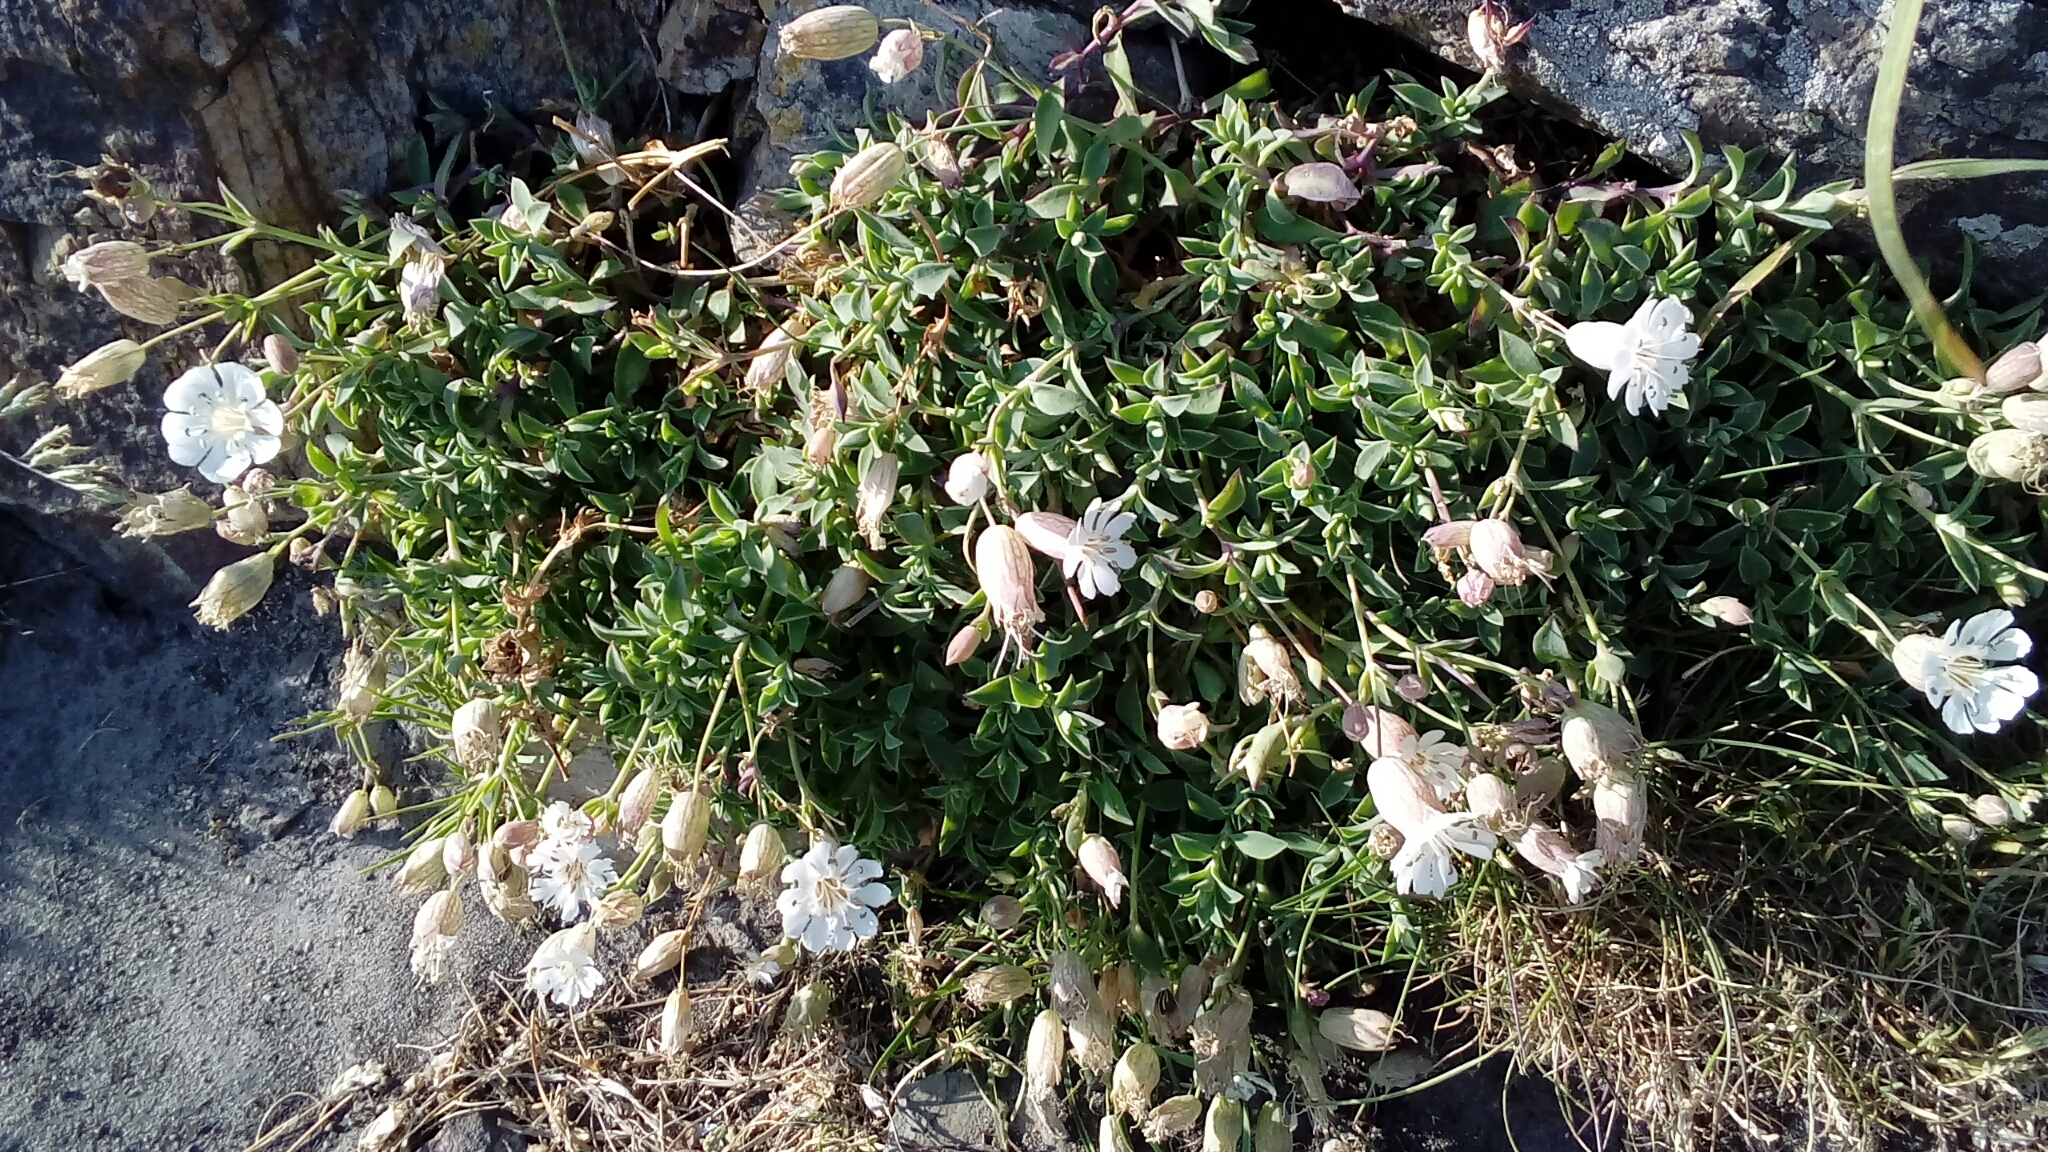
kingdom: Plantae
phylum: Tracheophyta
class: Magnoliopsida
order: Caryophyllales
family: Caryophyllaceae
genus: Silene
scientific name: Silene uniflora
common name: Sea campion
